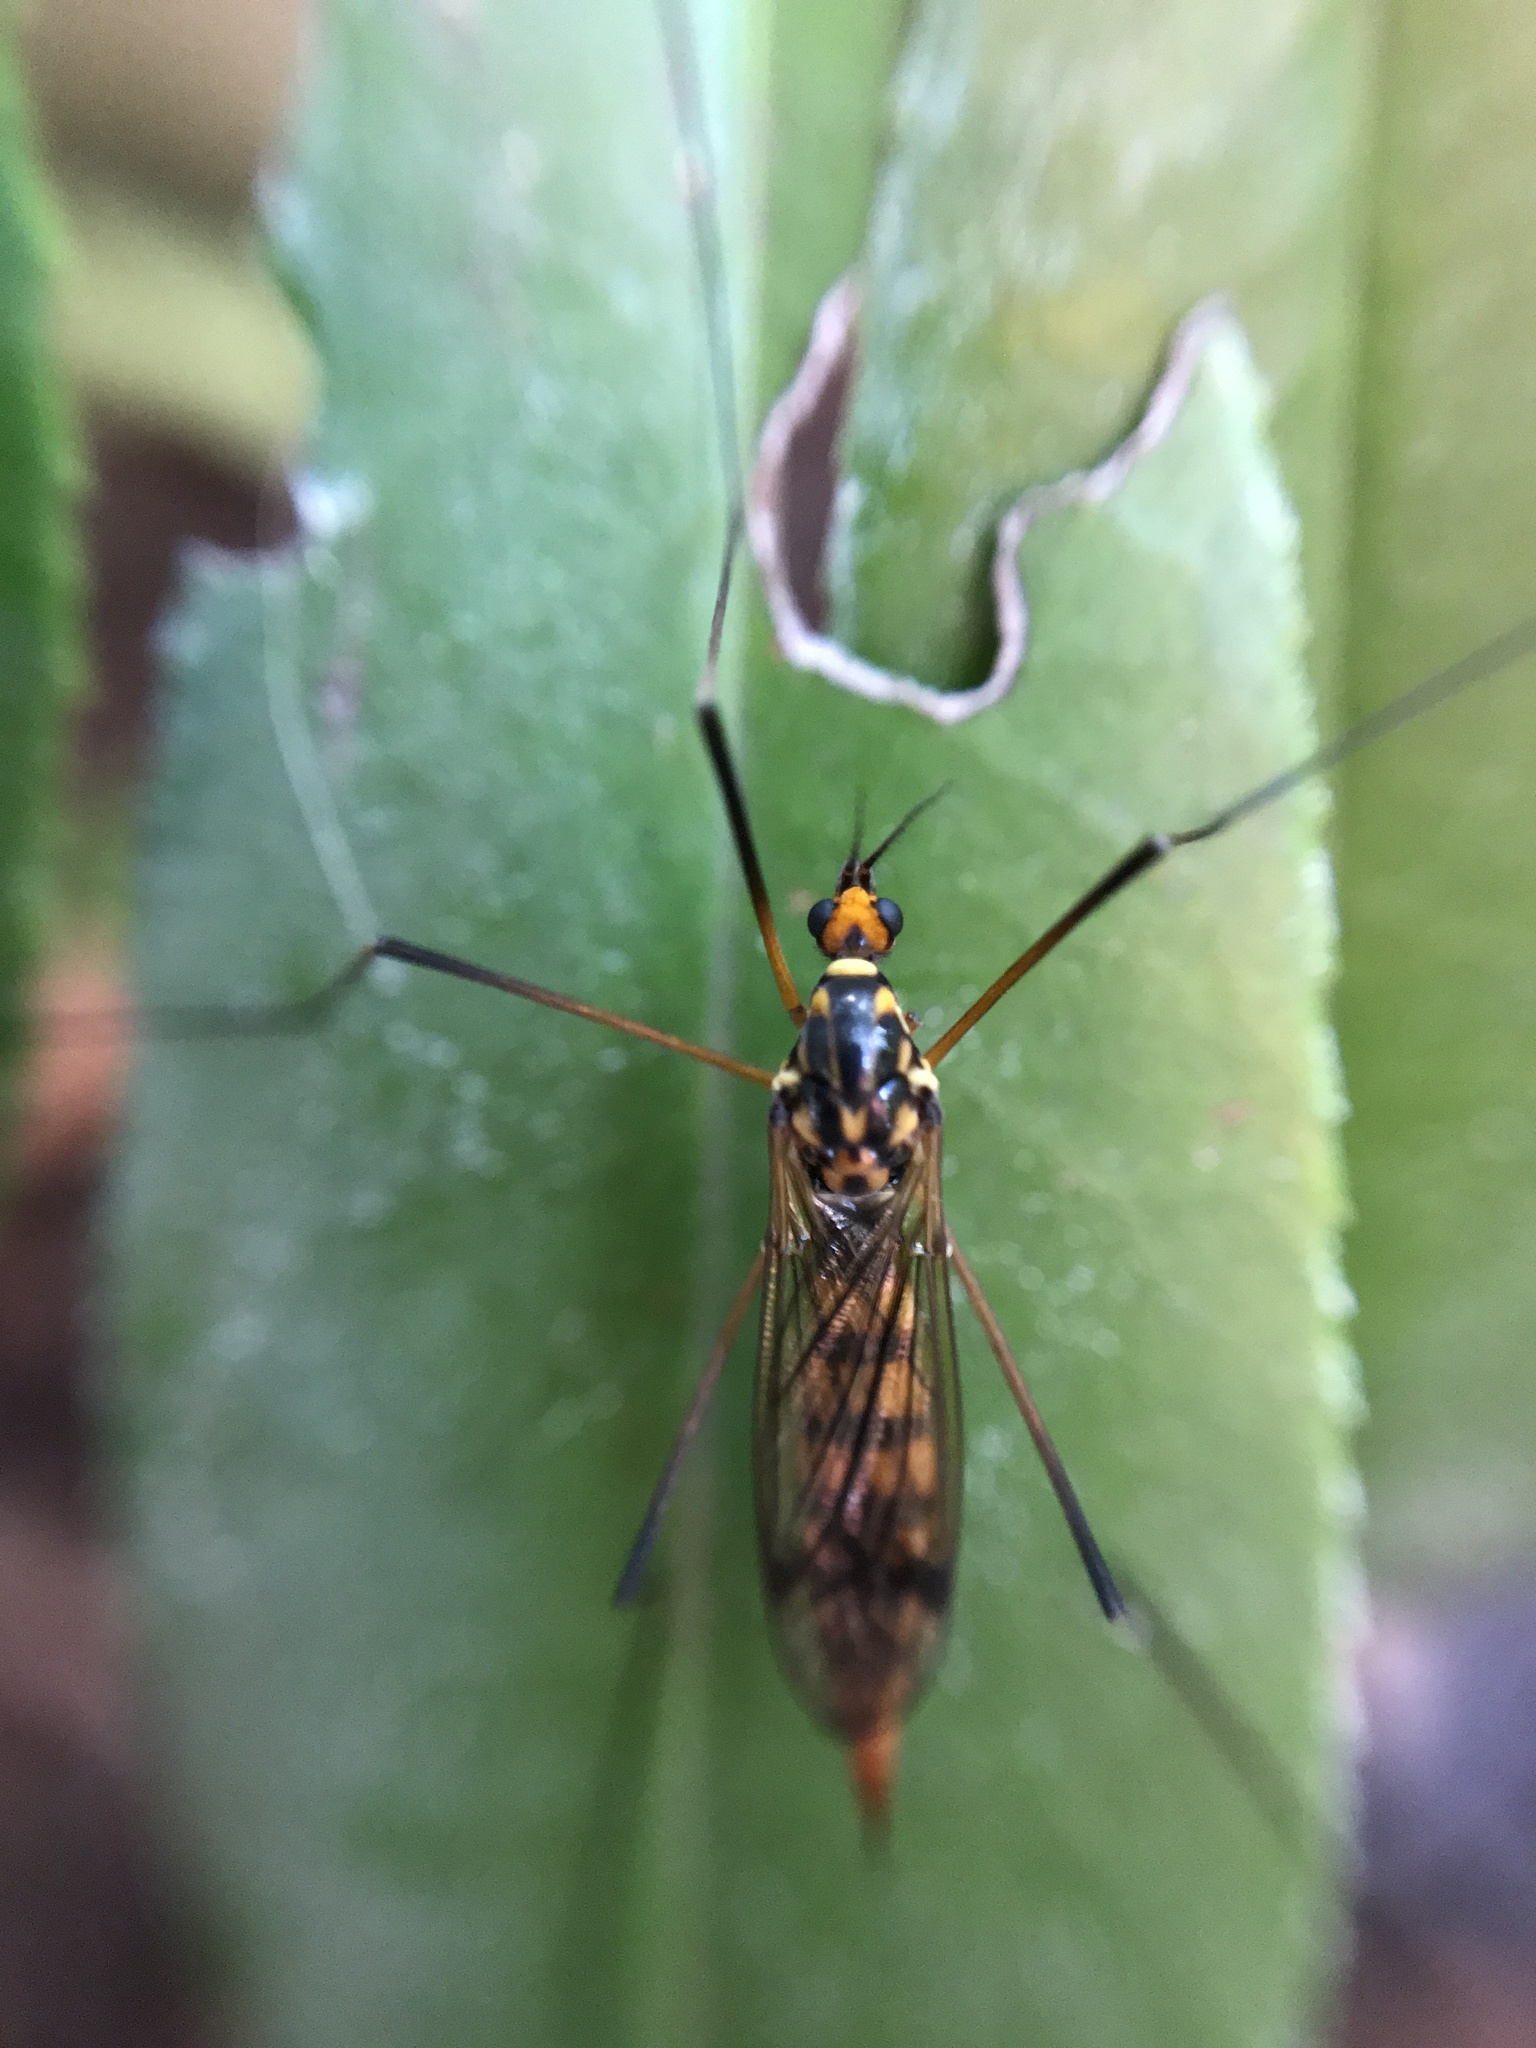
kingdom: Animalia
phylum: Arthropoda
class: Insecta
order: Diptera
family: Tipulidae
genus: Nephrotoma
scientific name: Nephrotoma crocata
